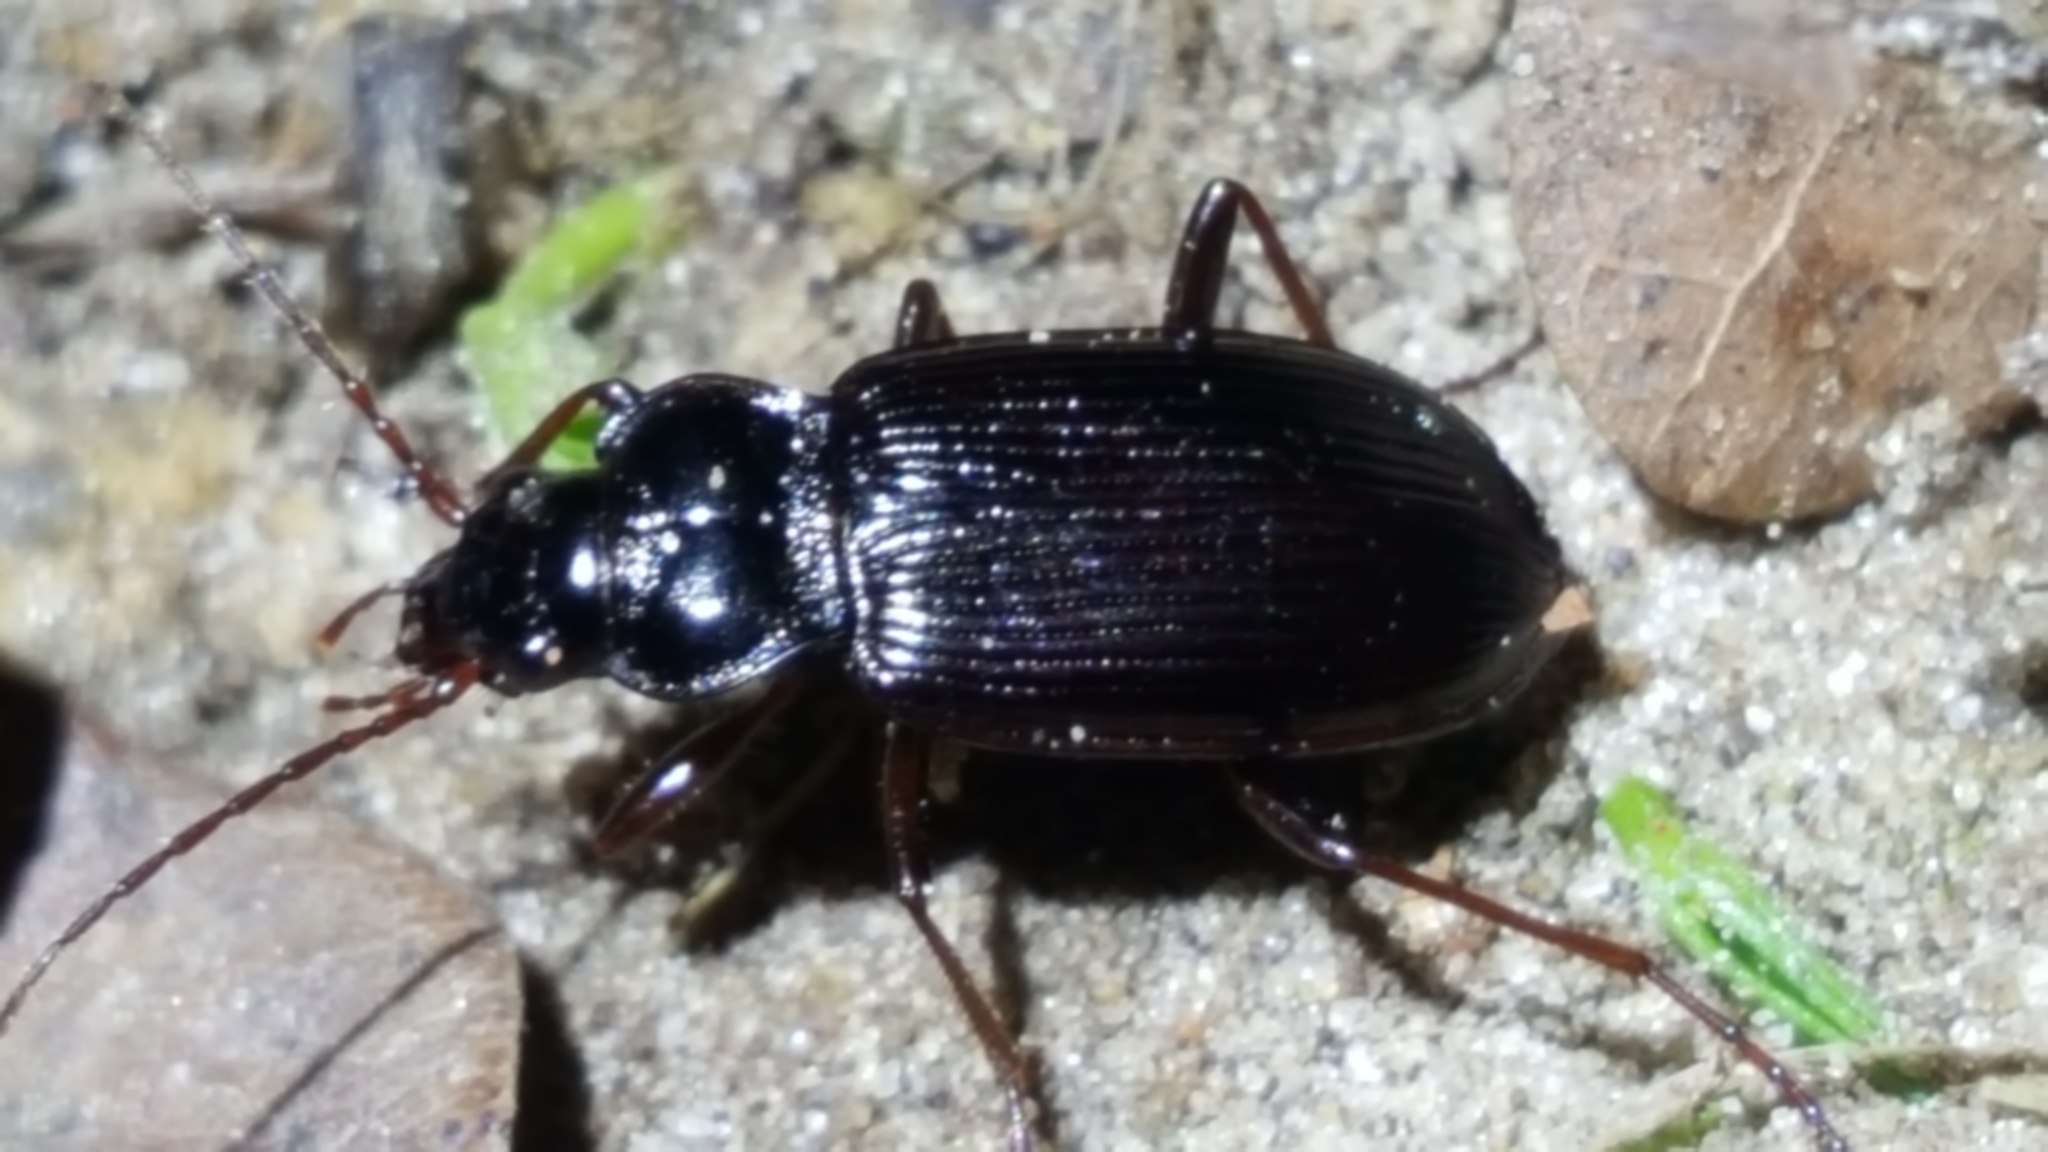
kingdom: Animalia
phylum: Arthropoda
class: Insecta
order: Coleoptera
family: Carabidae
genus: Nebria
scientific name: Nebria brevicollis
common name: Short-necked gazelle beetle
